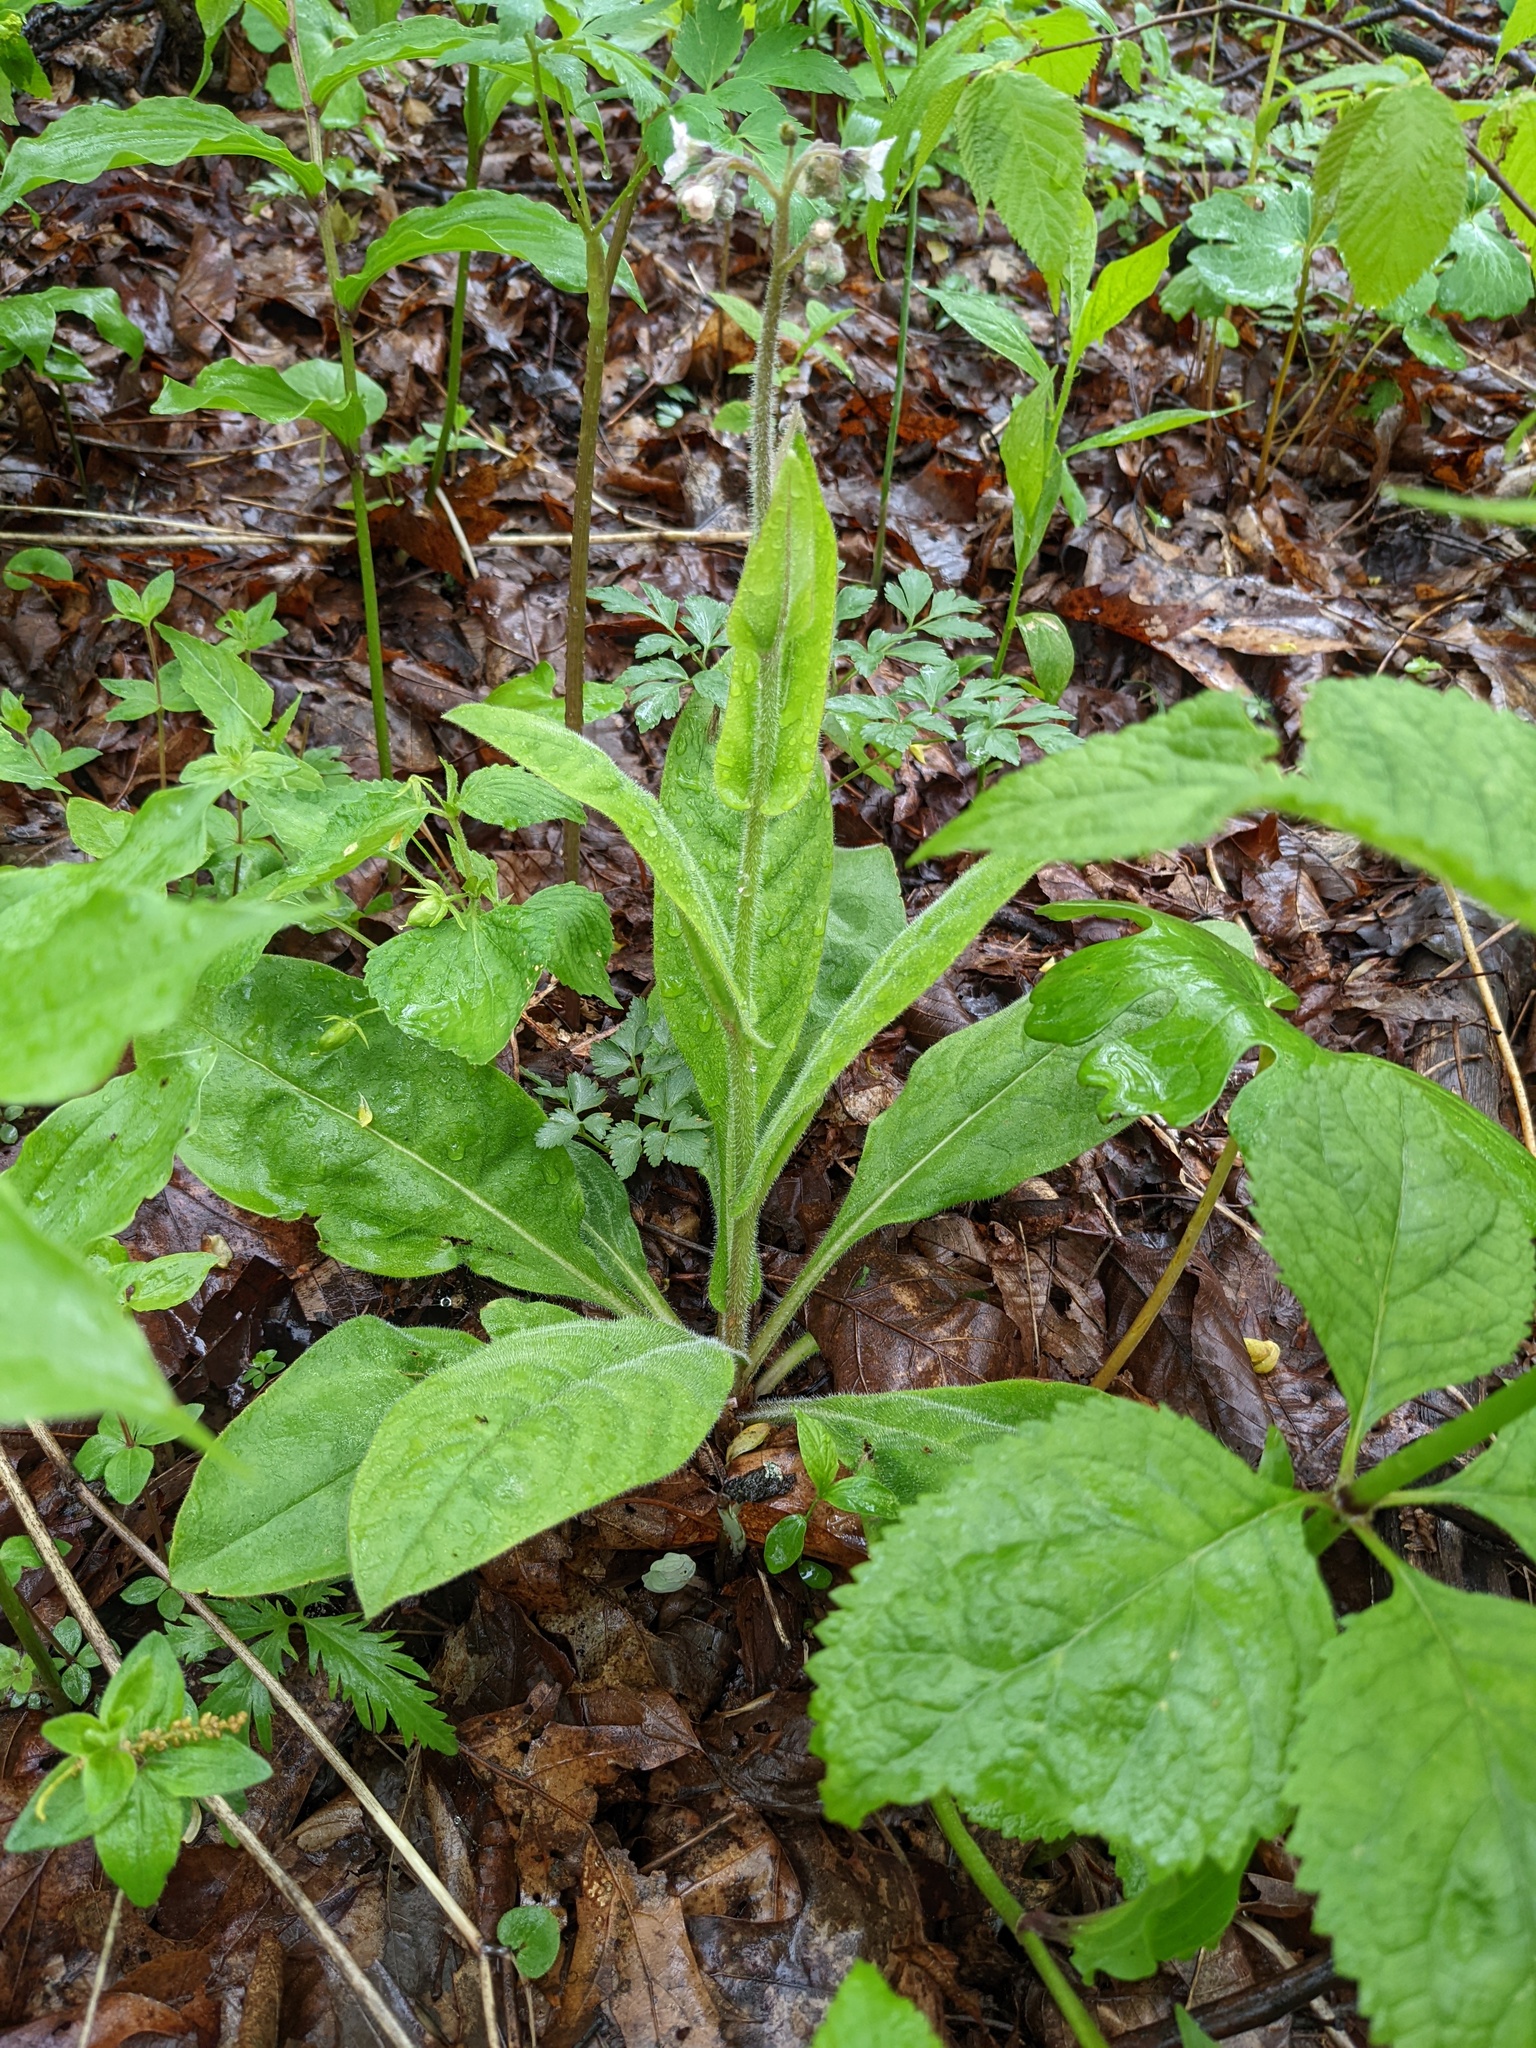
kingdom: Plantae
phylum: Tracheophyta
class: Magnoliopsida
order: Boraginales
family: Boraginaceae
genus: Andersonglossum
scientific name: Andersonglossum virginianum
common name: Wild comfrey
